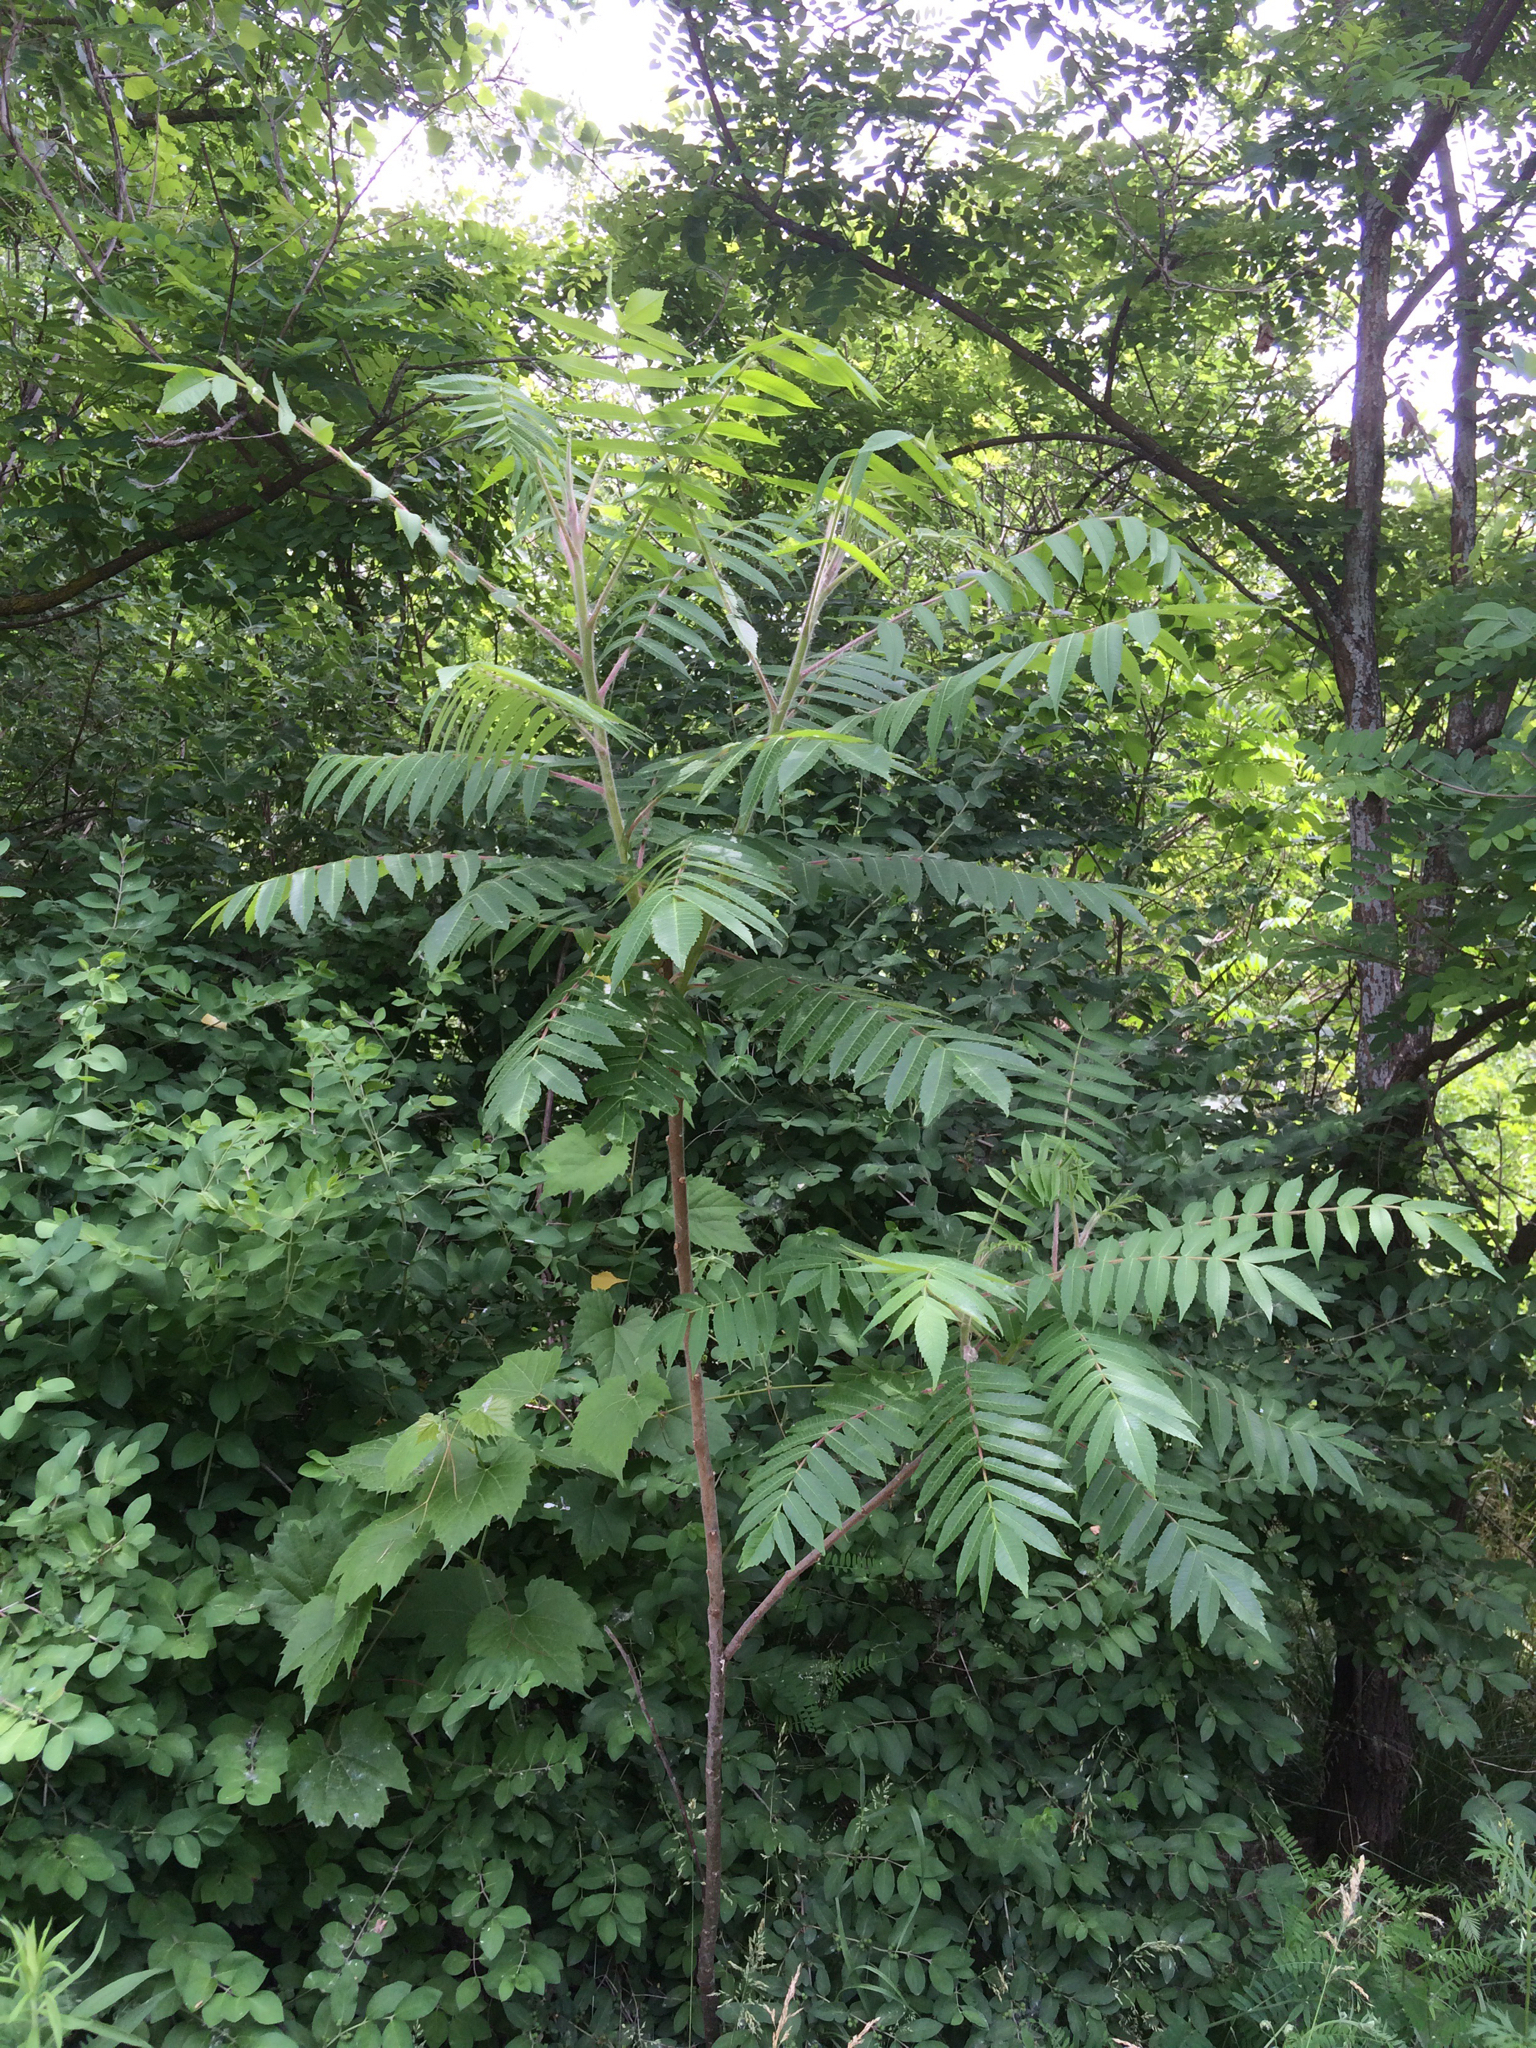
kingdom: Plantae
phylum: Tracheophyta
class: Magnoliopsida
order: Sapindales
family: Anacardiaceae
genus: Rhus
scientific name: Rhus typhina
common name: Staghorn sumac
